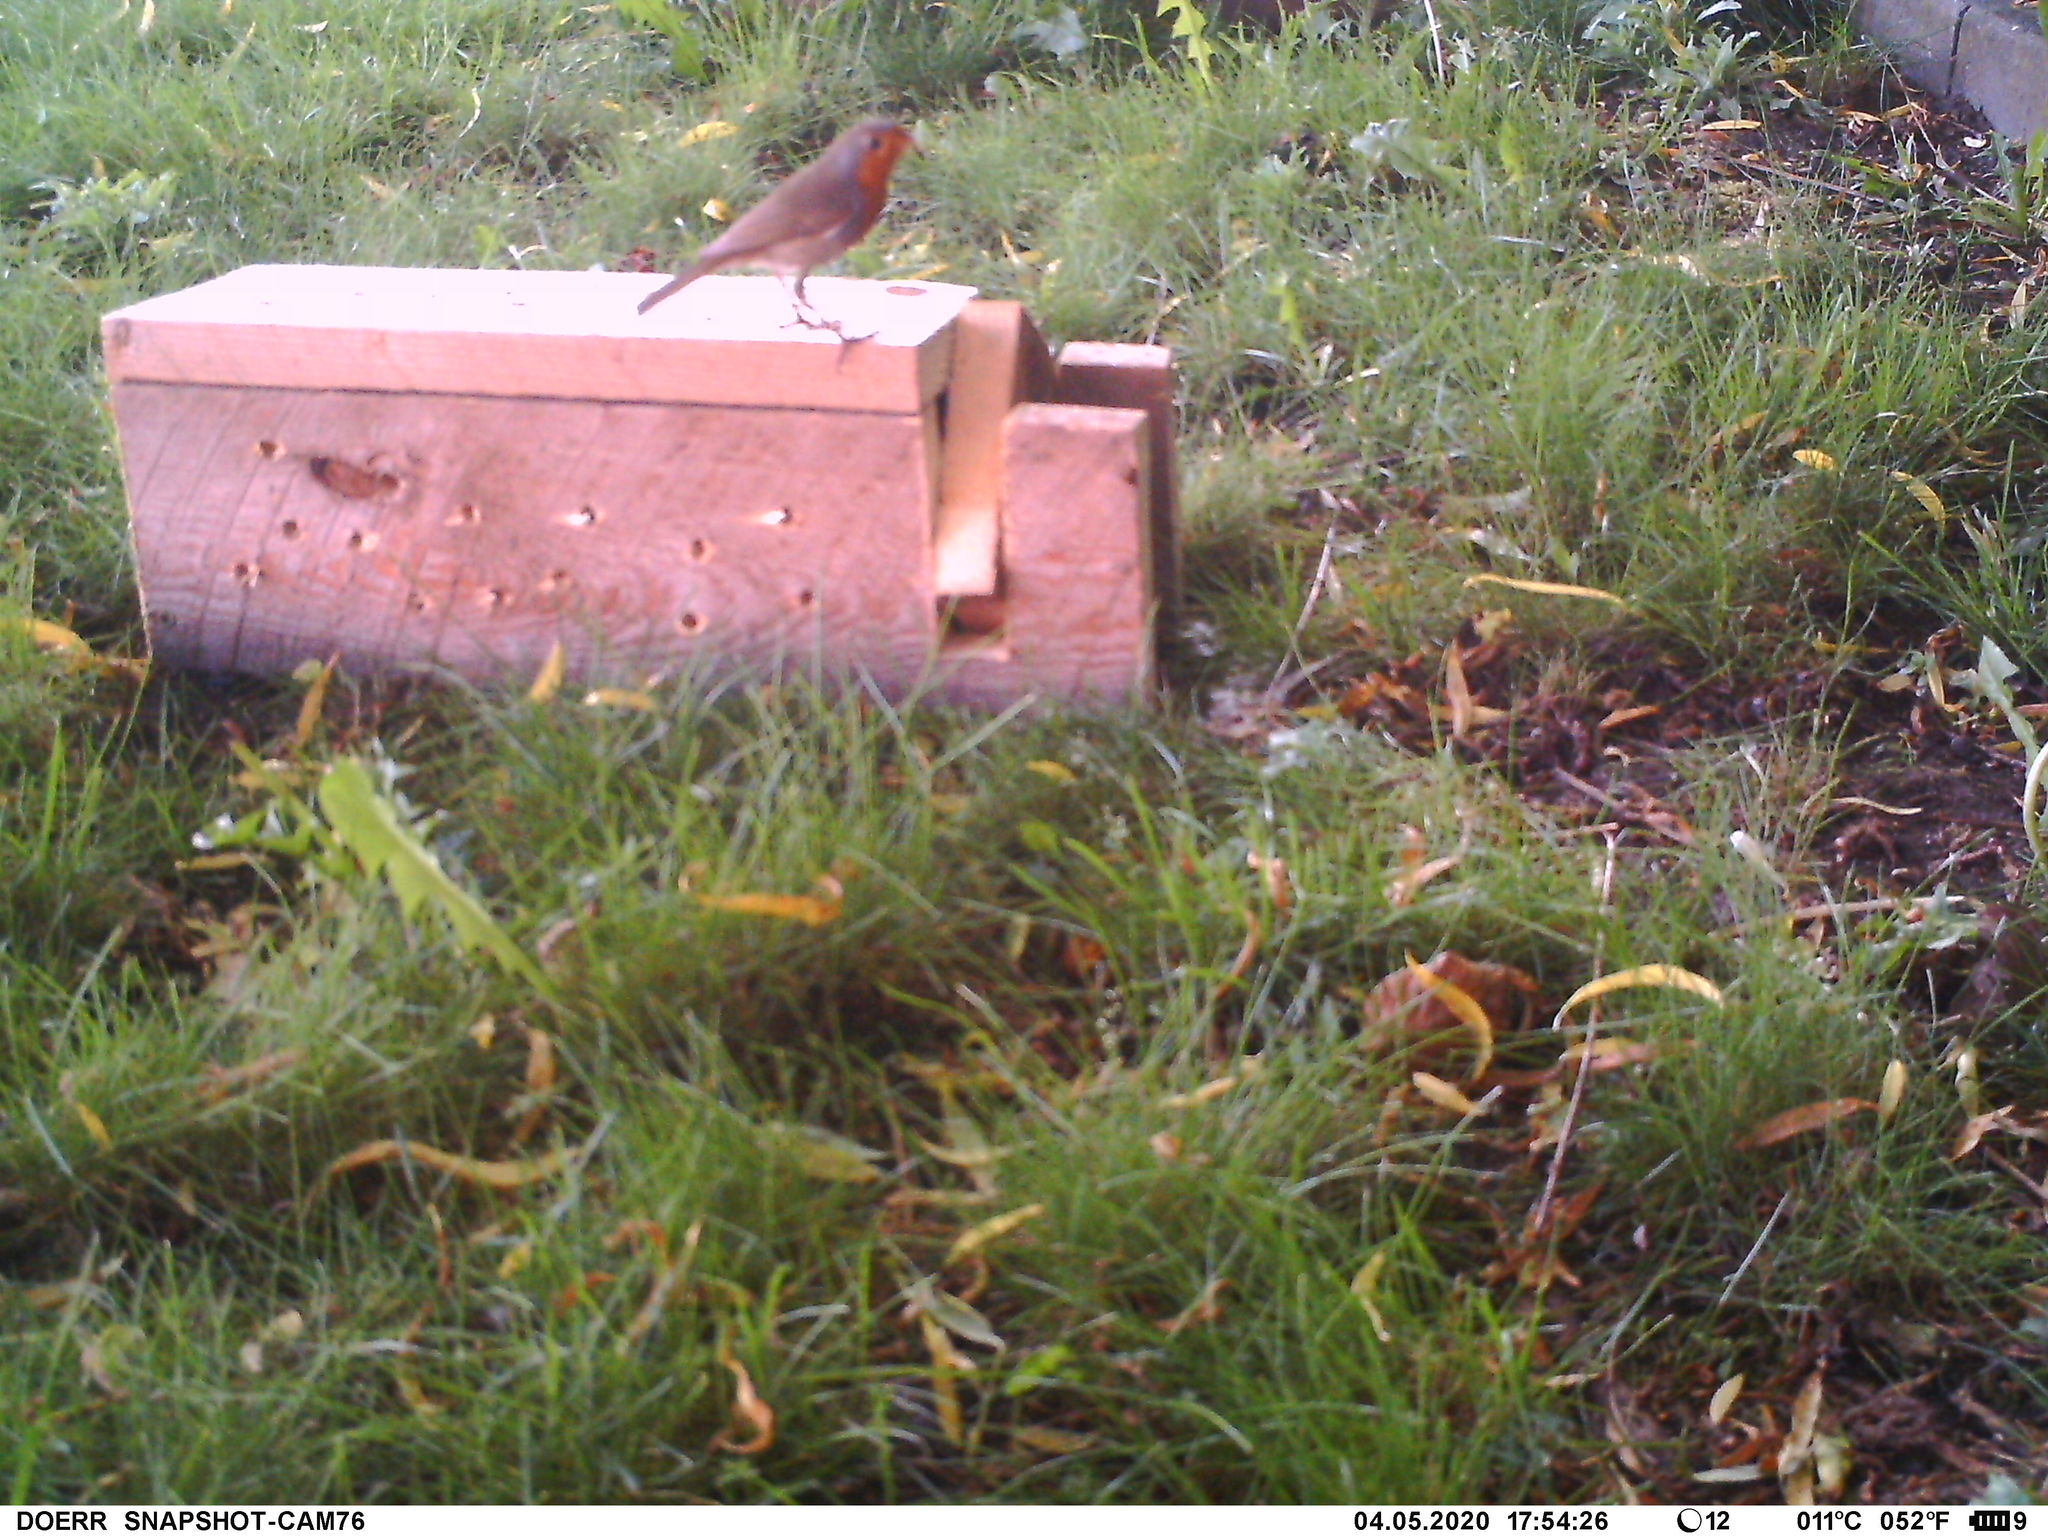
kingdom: Animalia
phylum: Chordata
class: Aves
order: Passeriformes
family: Muscicapidae
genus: Erithacus
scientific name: Erithacus rubecula
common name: European robin
